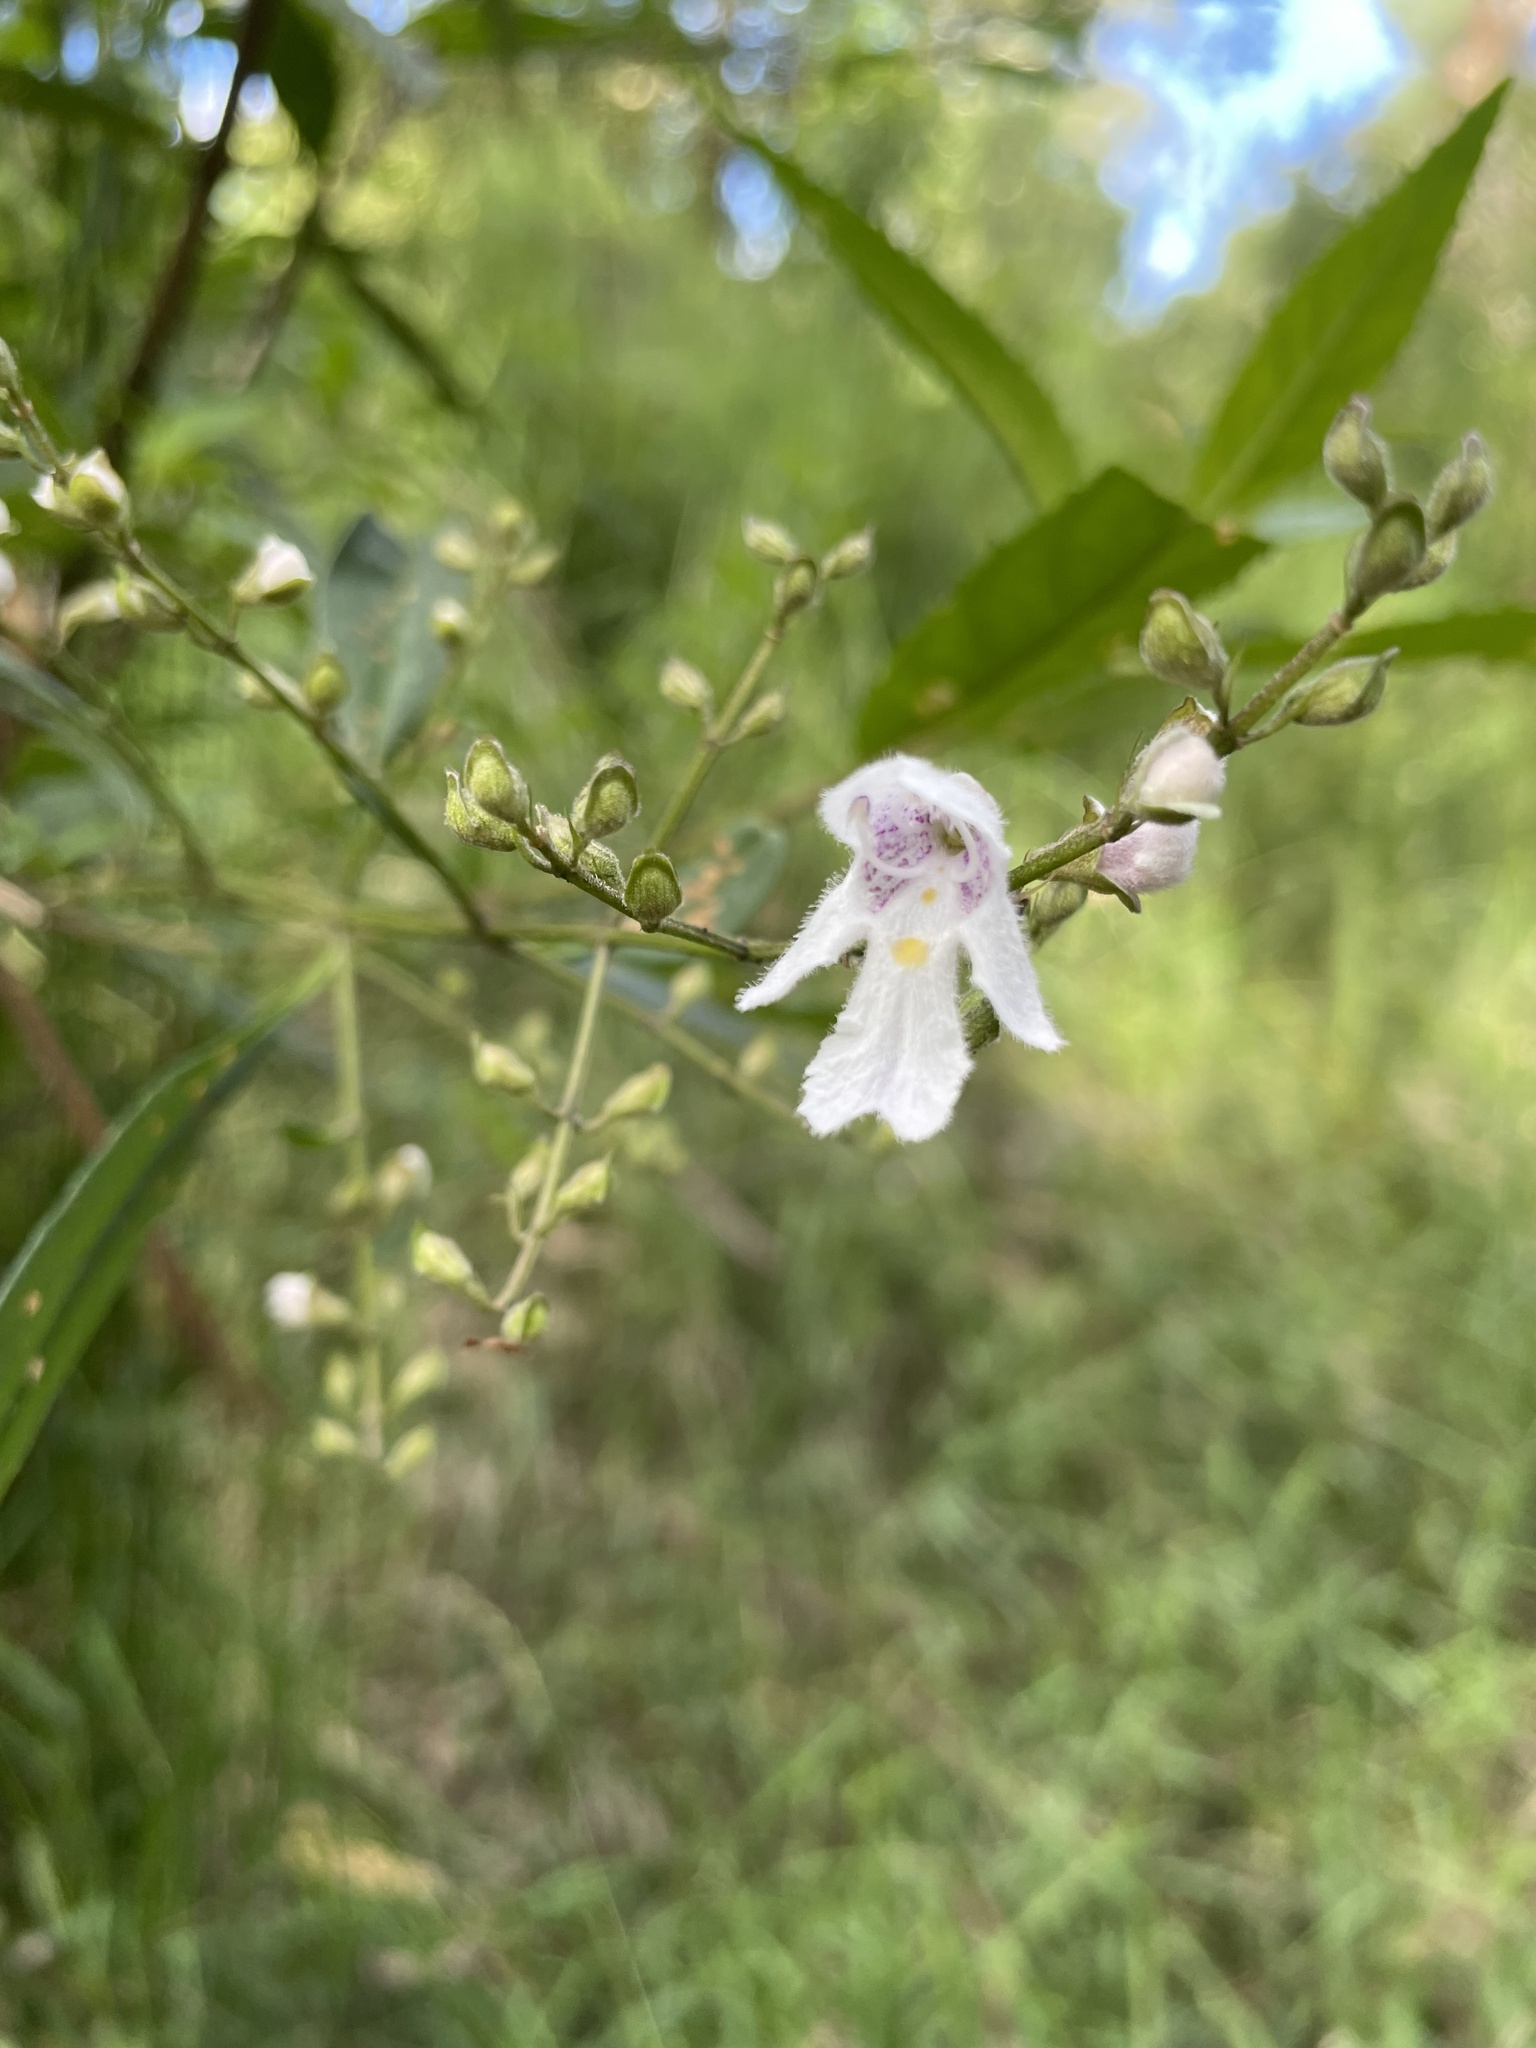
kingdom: Plantae
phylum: Tracheophyta
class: Magnoliopsida
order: Lamiales
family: Lamiaceae
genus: Prostanthera
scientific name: Prostanthera lasianthos
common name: Mountain-lilac
